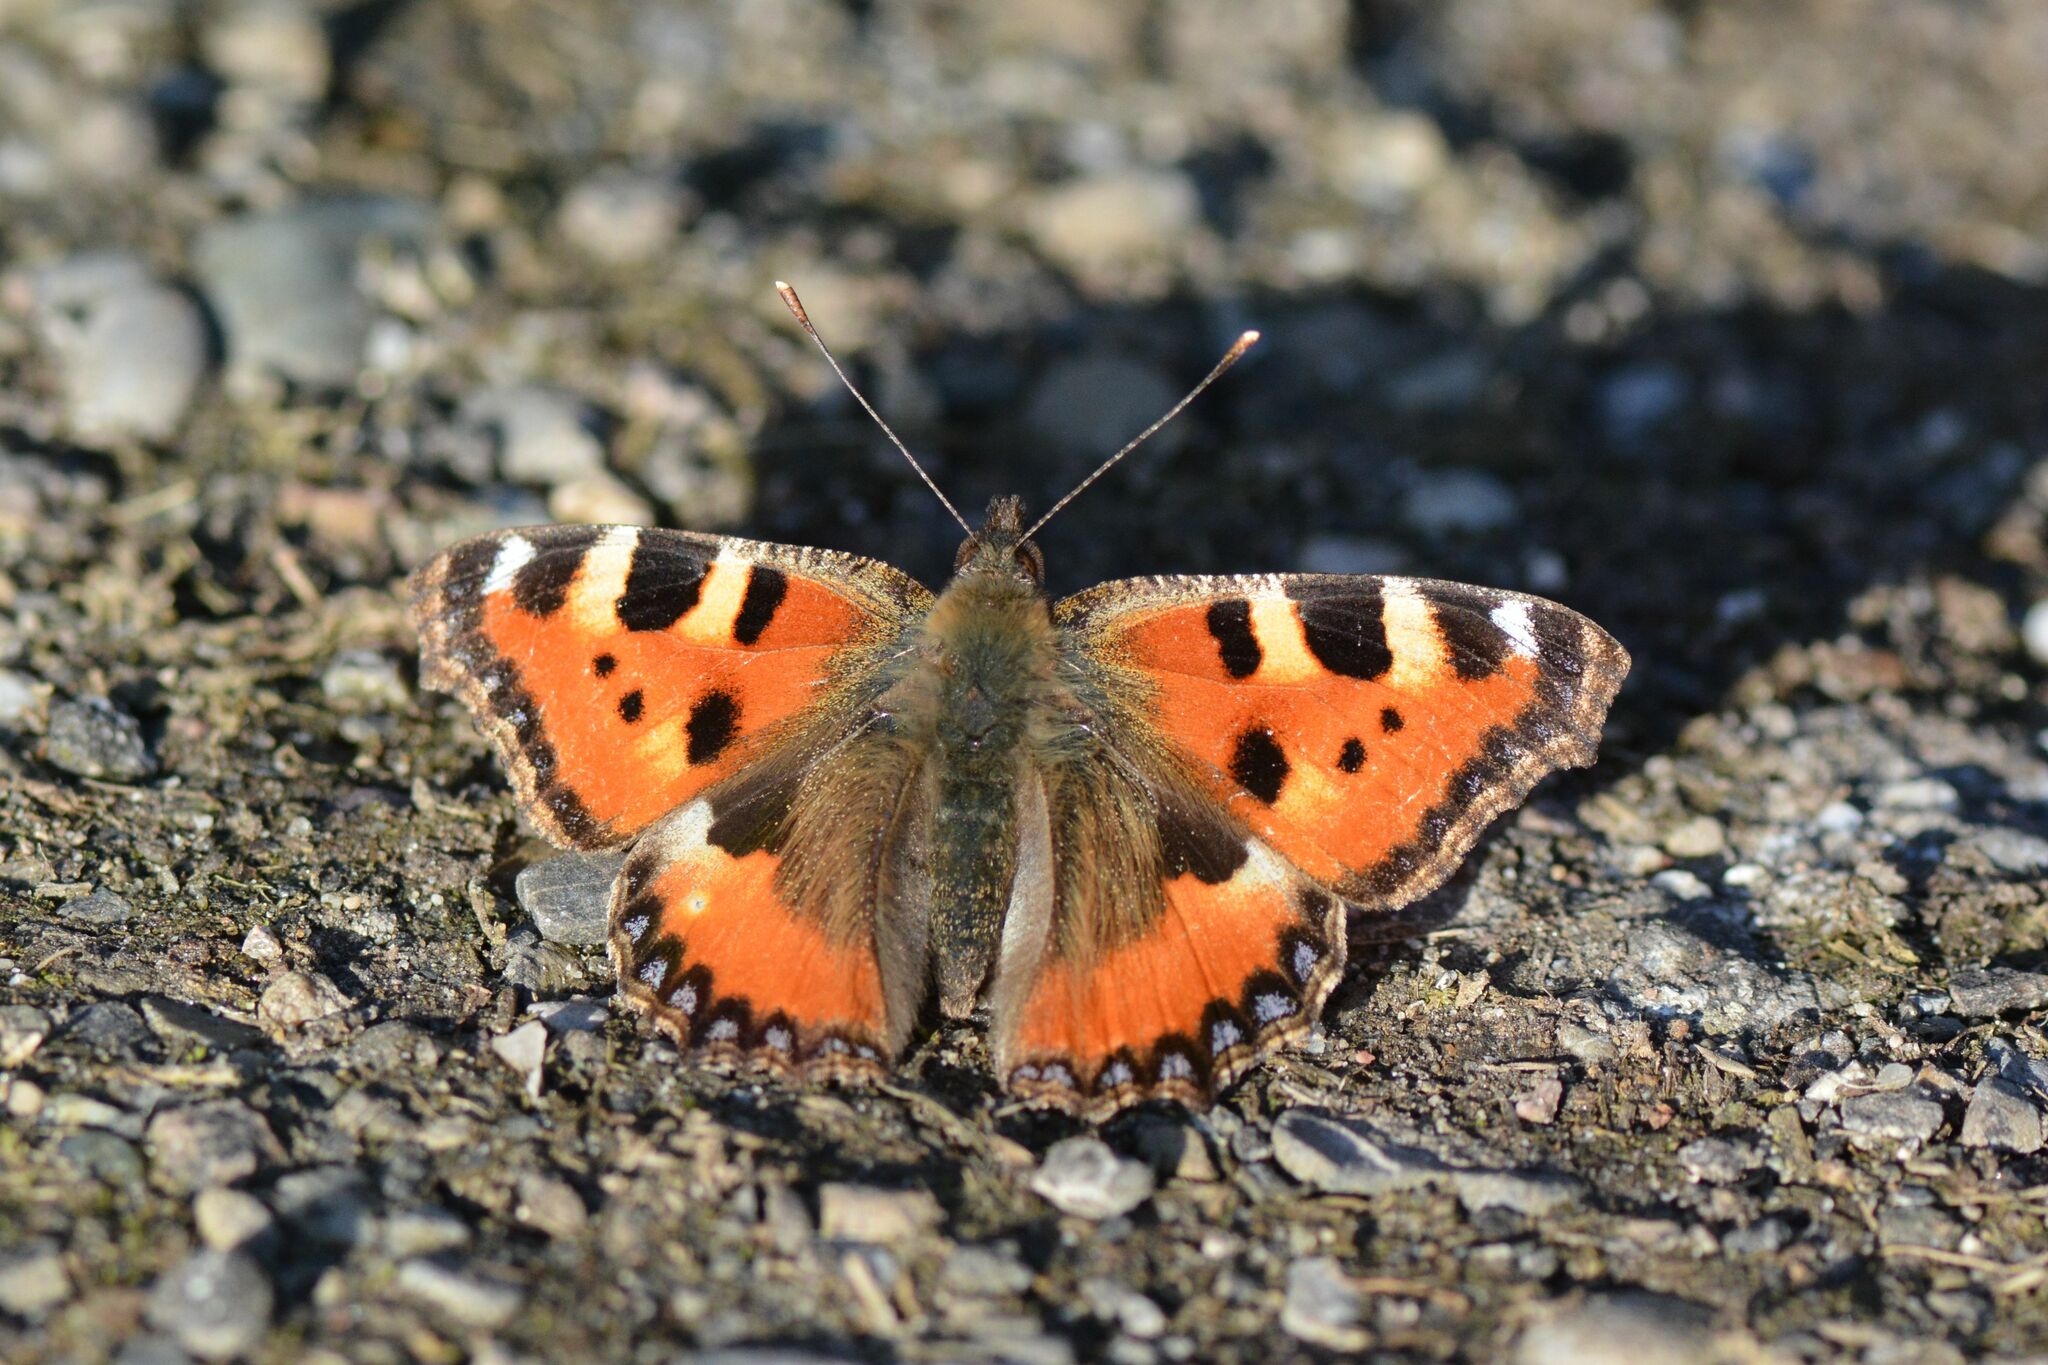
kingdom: Animalia
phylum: Arthropoda
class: Insecta
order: Lepidoptera
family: Nymphalidae
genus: Aglais
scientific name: Aglais urticae
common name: Small tortoiseshell
